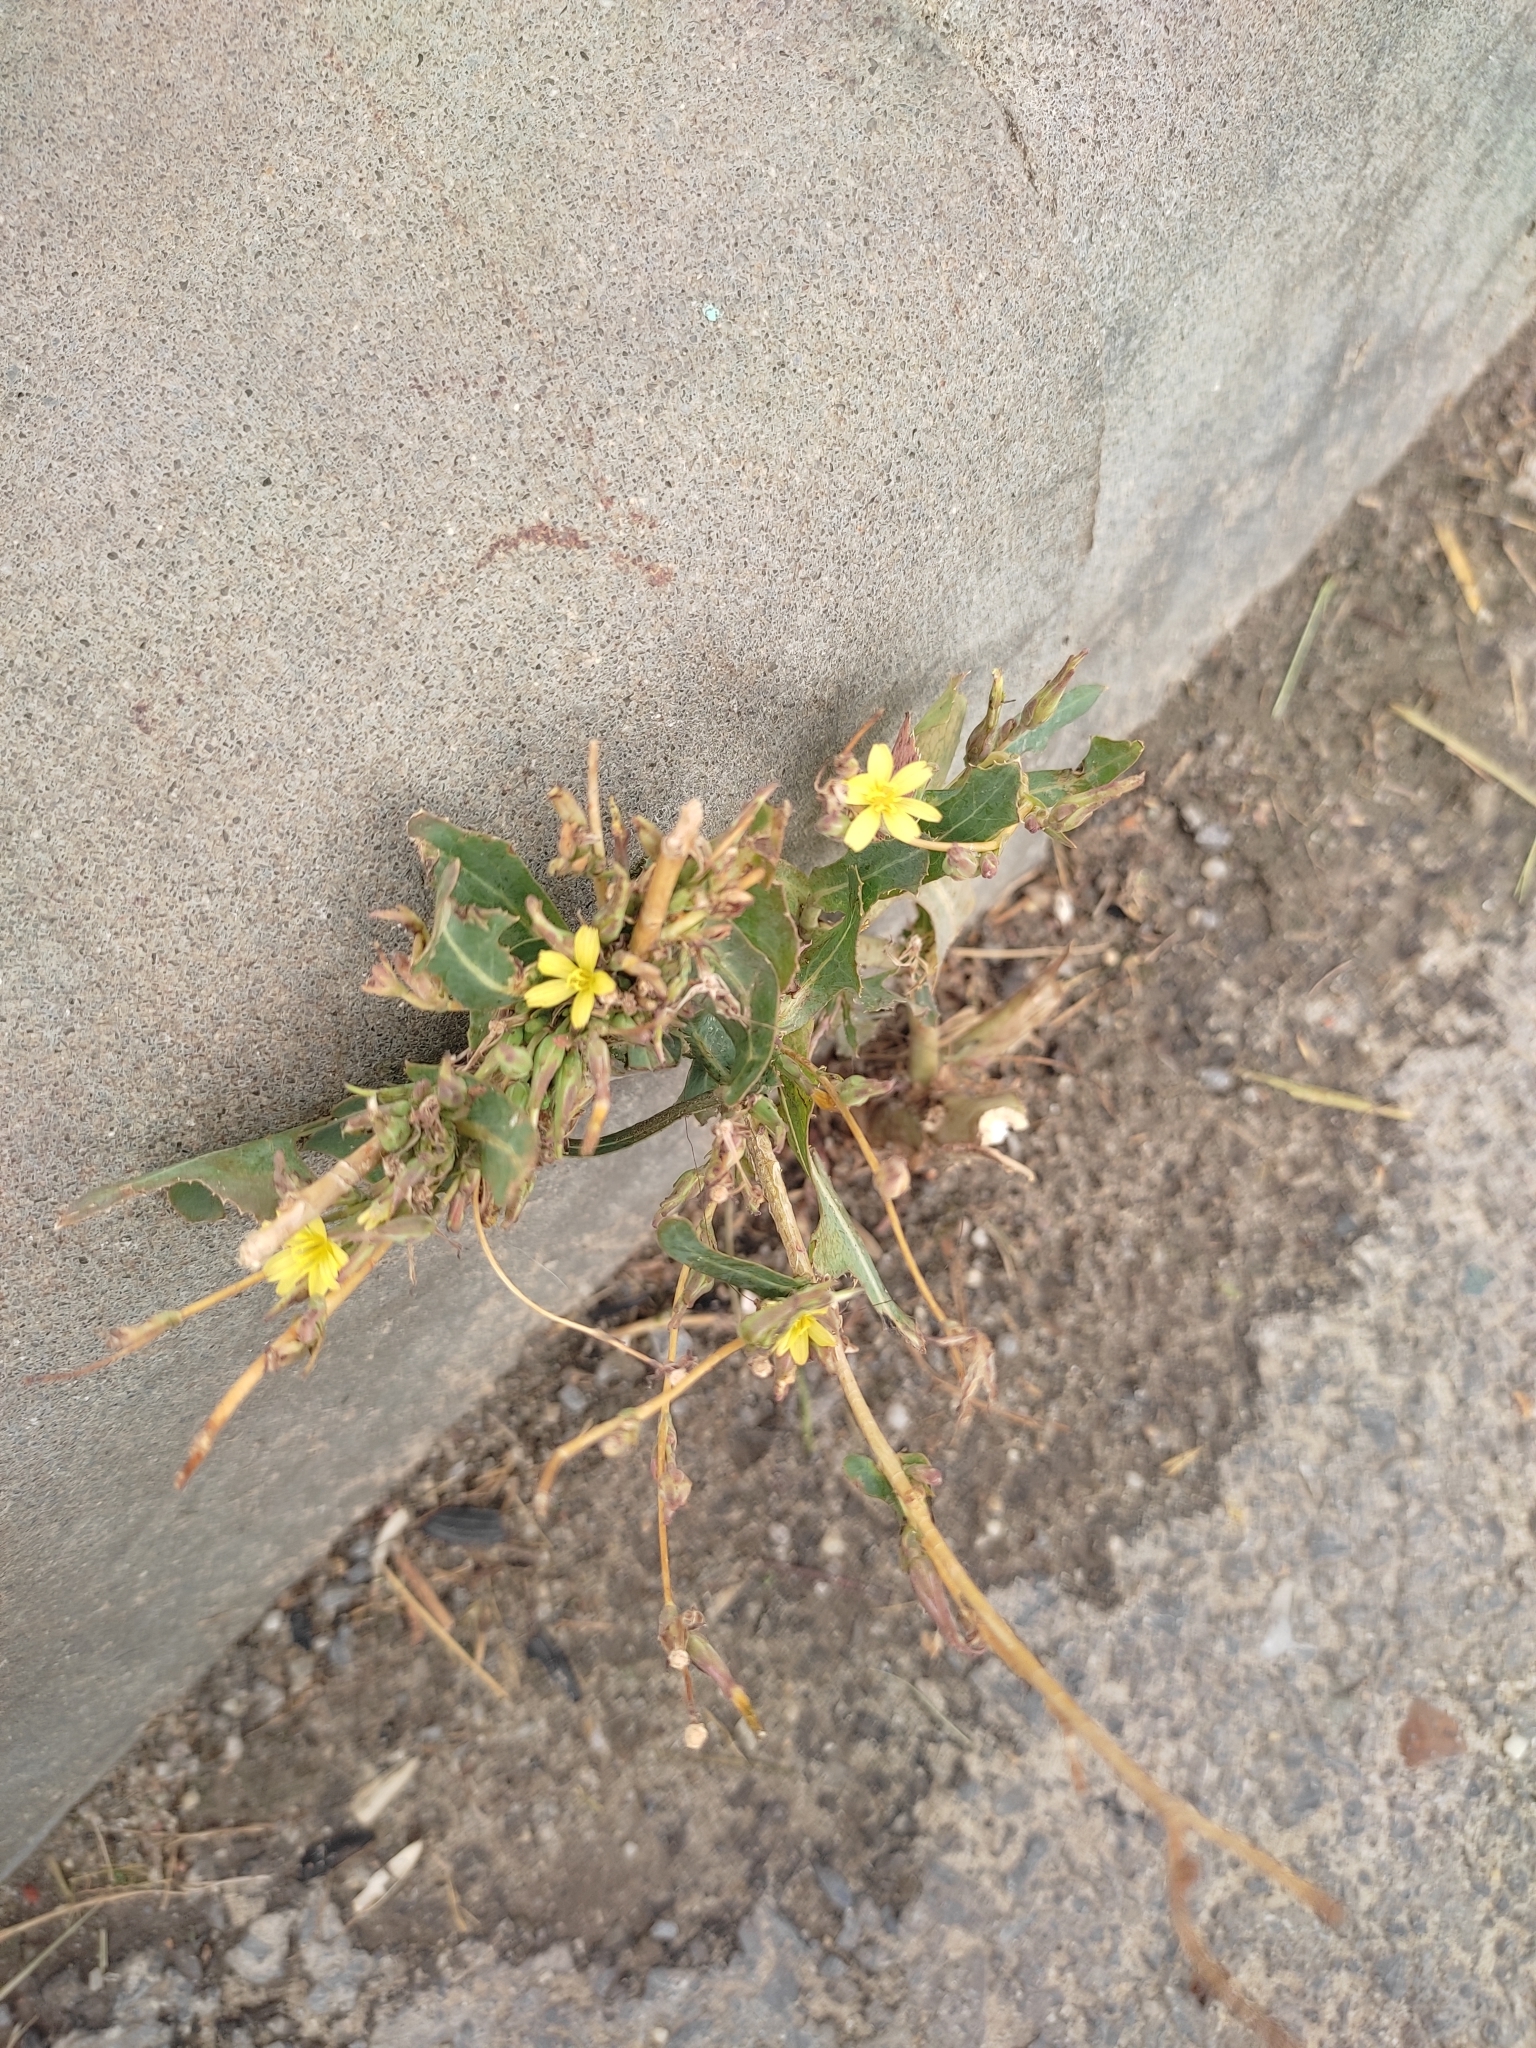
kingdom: Plantae
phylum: Tracheophyta
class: Magnoliopsida
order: Asterales
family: Asteraceae
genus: Lactuca
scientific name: Lactuca serriola
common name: Prickly lettuce
